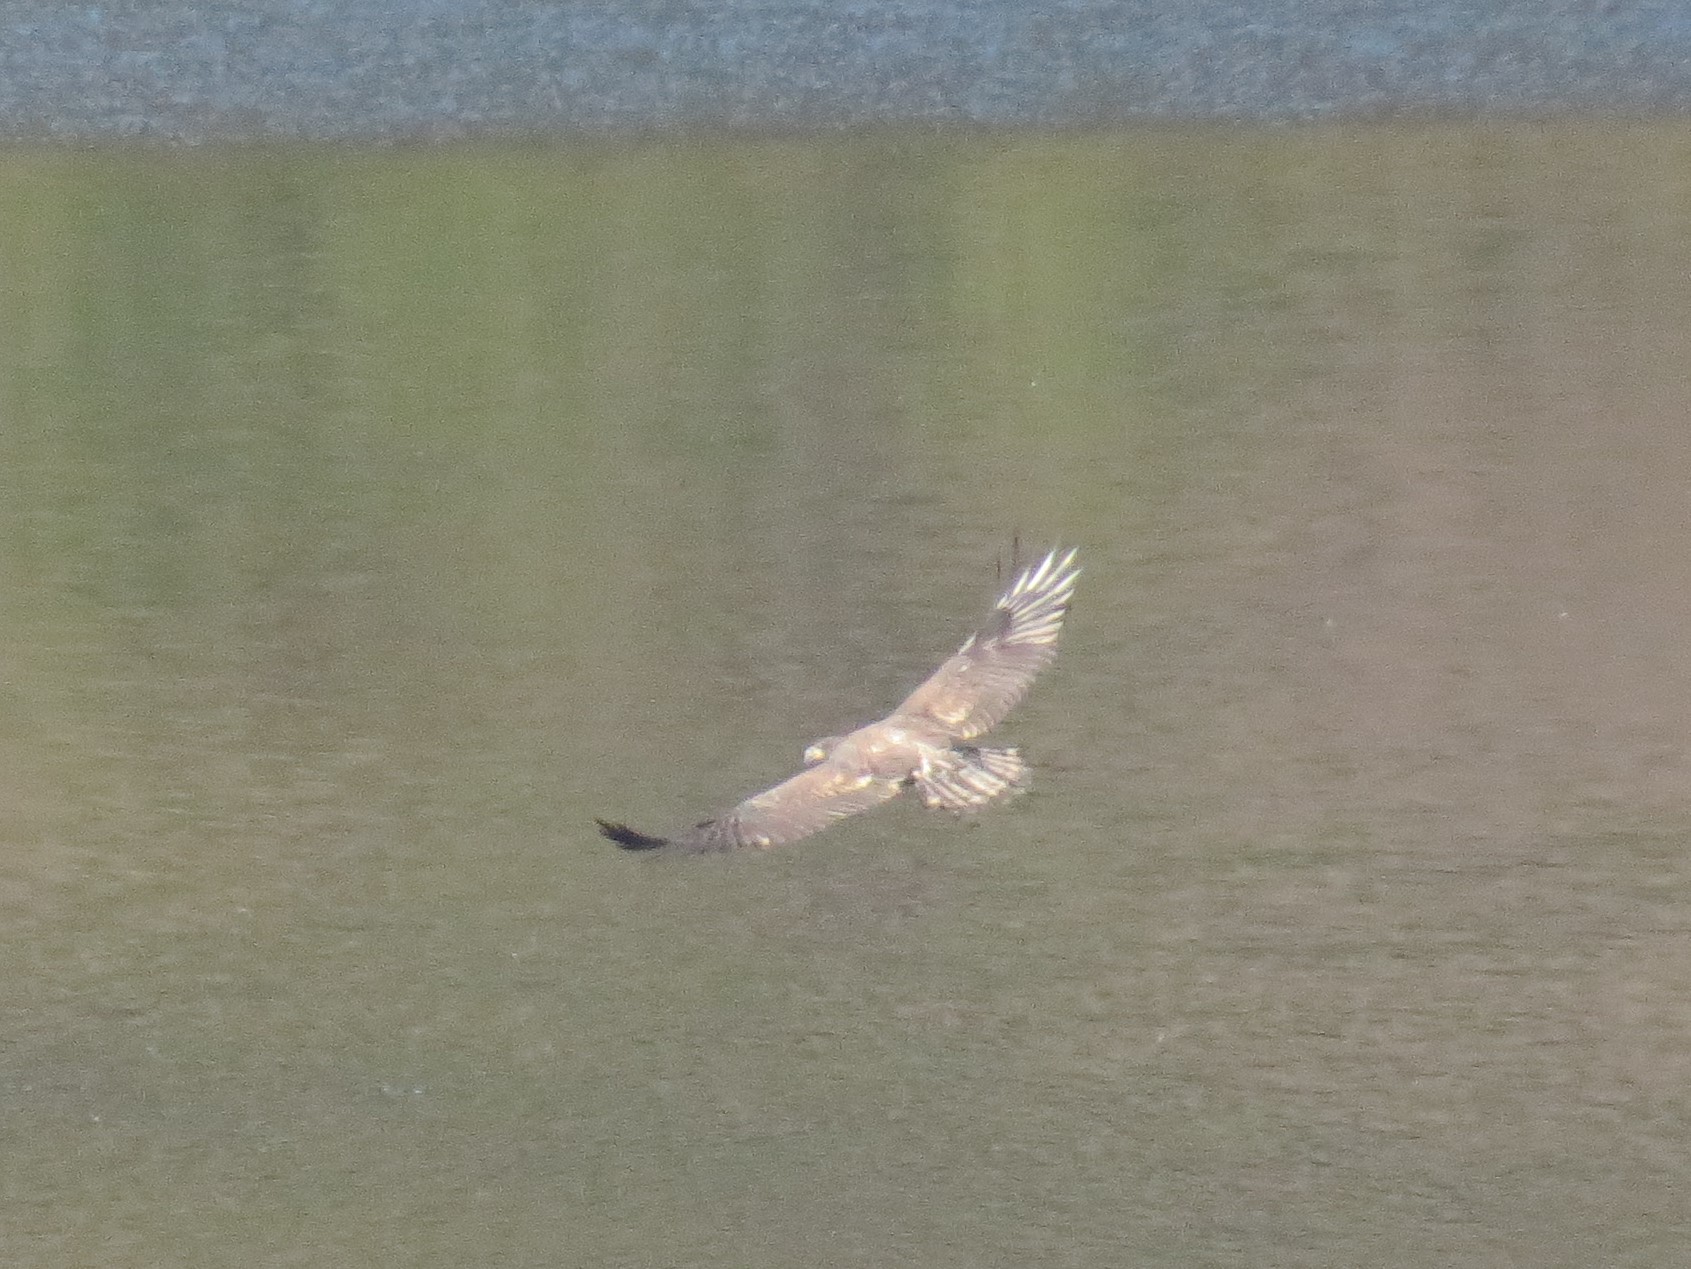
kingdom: Animalia
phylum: Chordata
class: Aves
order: Accipitriformes
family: Accipitridae
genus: Haliaeetus
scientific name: Haliaeetus leucocephalus
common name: Bald eagle
